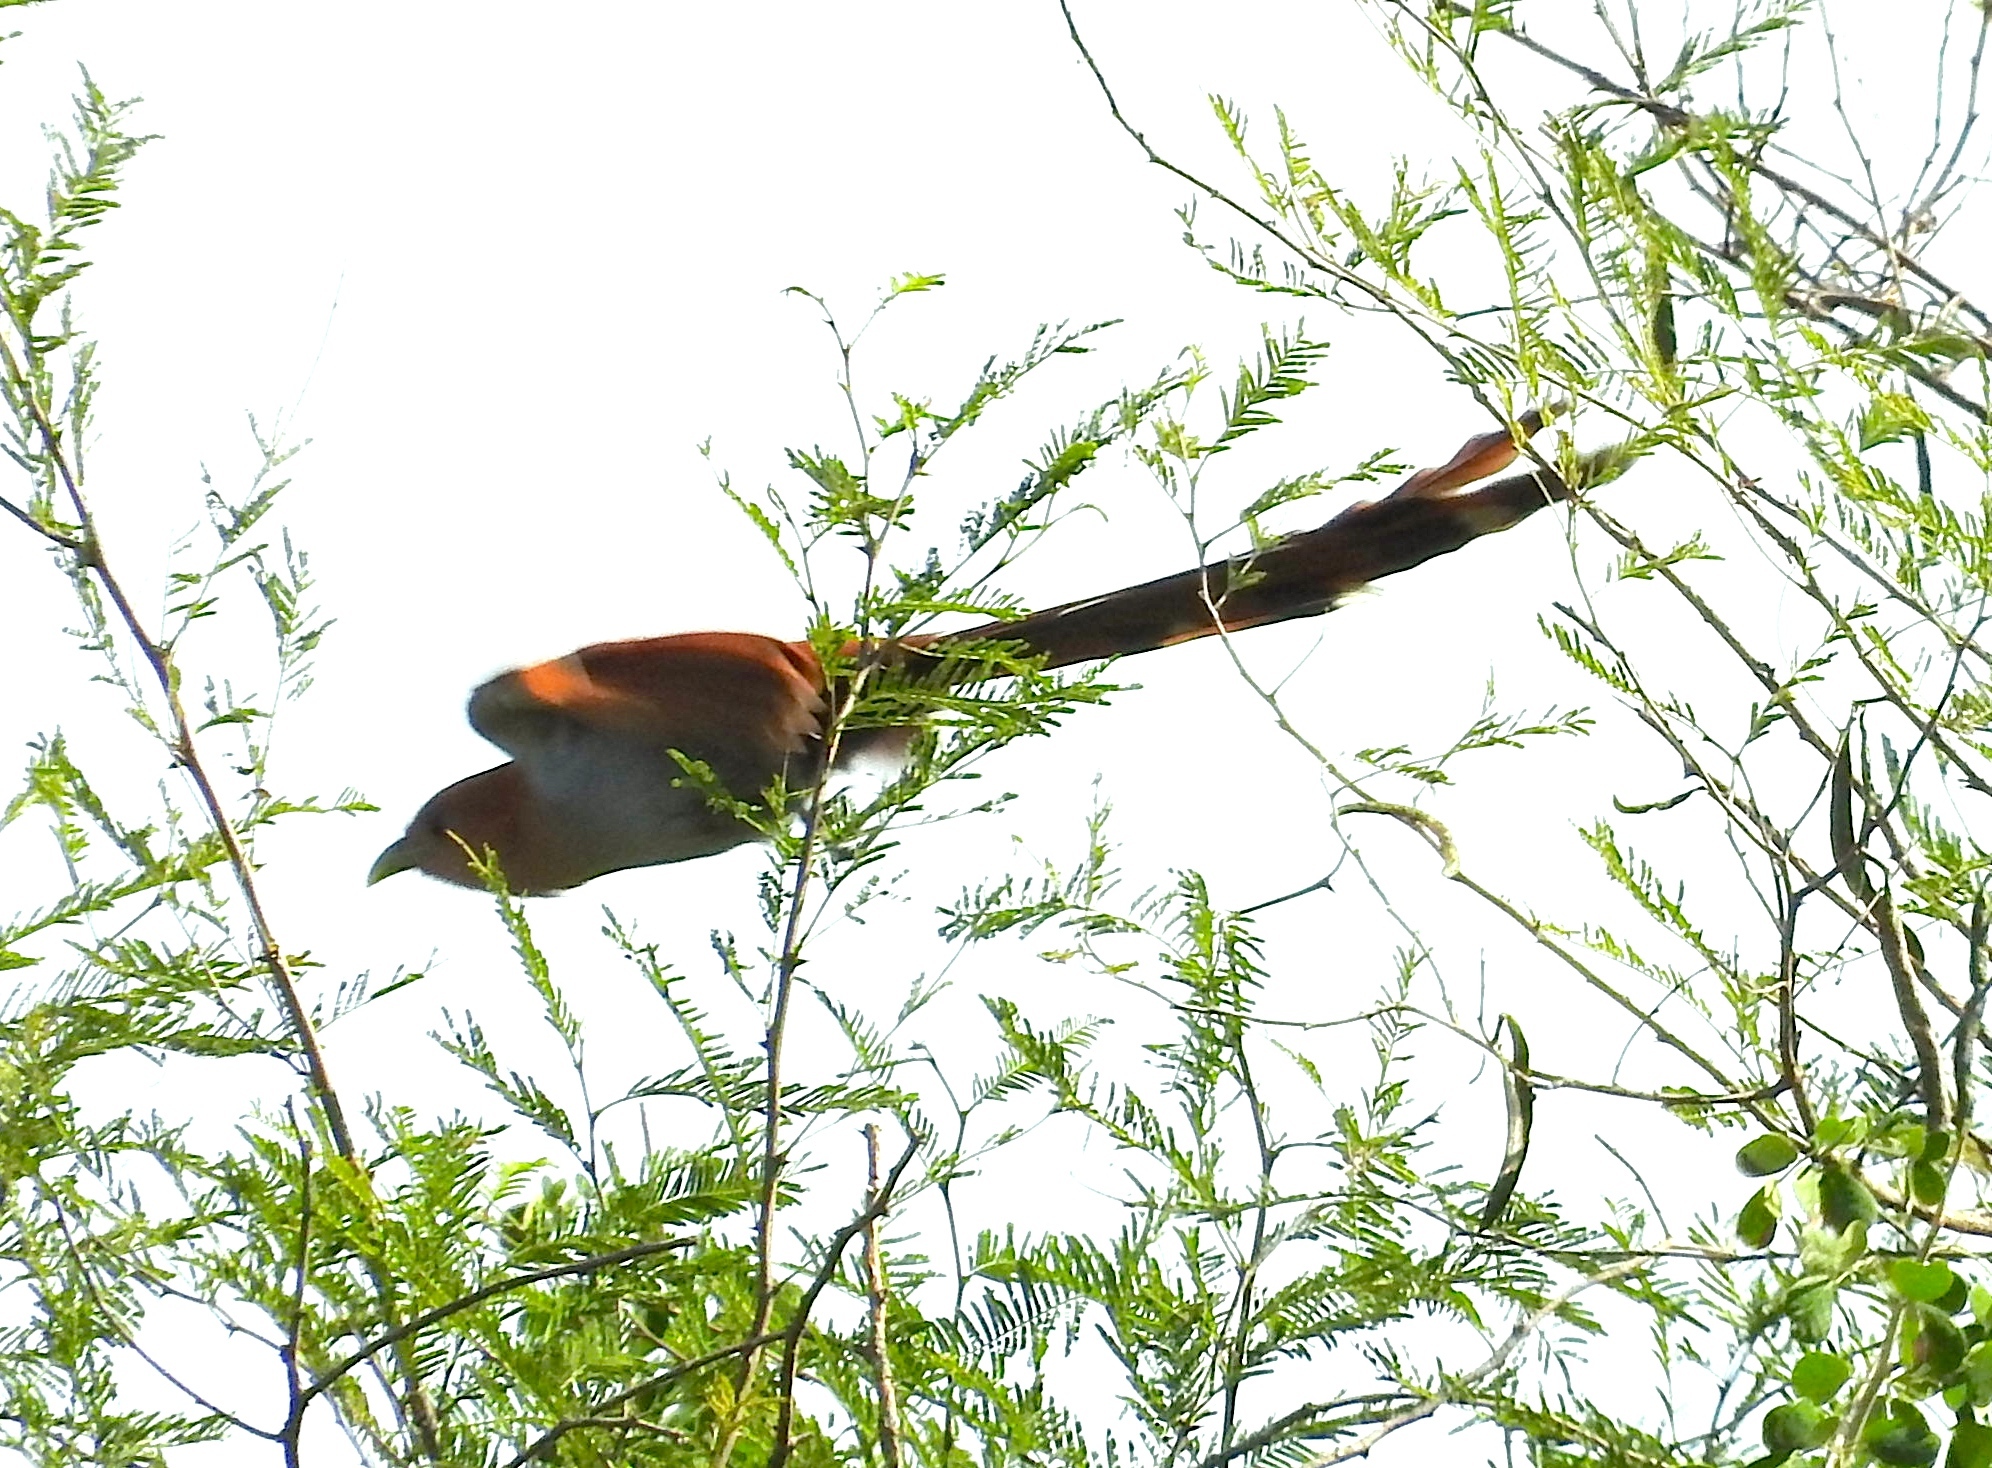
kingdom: Animalia
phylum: Chordata
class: Aves
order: Cuculiformes
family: Cuculidae
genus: Piaya
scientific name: Piaya cayana
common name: Squirrel cuckoo
